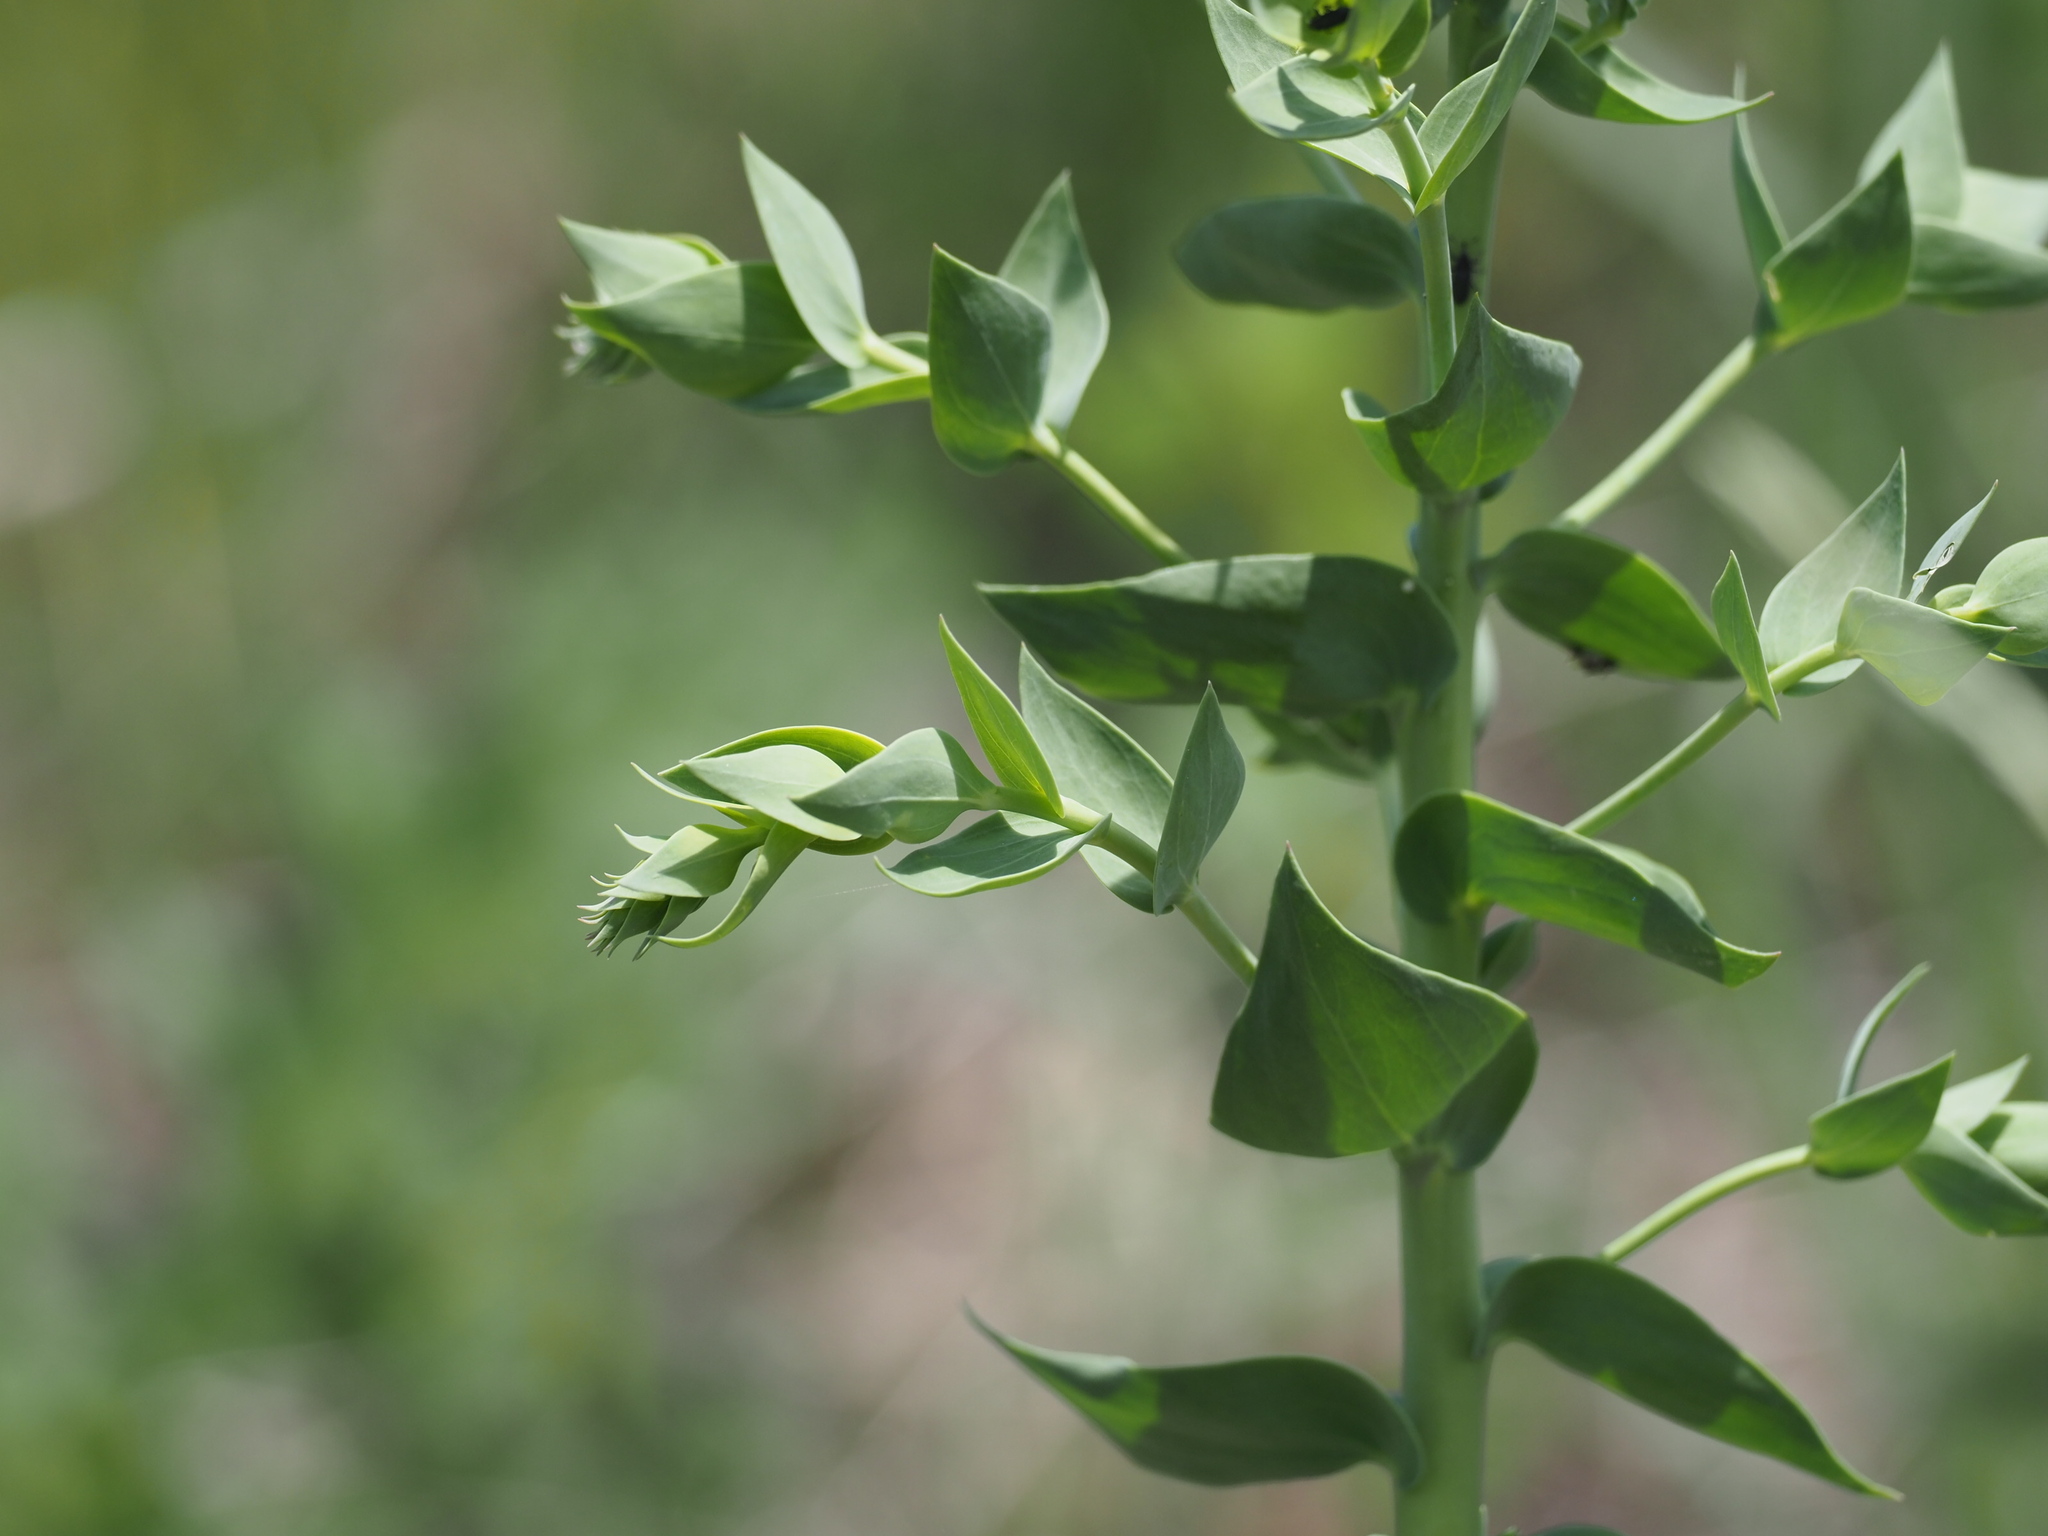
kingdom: Plantae
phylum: Tracheophyta
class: Magnoliopsida
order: Lamiales
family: Plantaginaceae
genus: Linaria
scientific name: Linaria dalmatica
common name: Dalmatian toadflax
